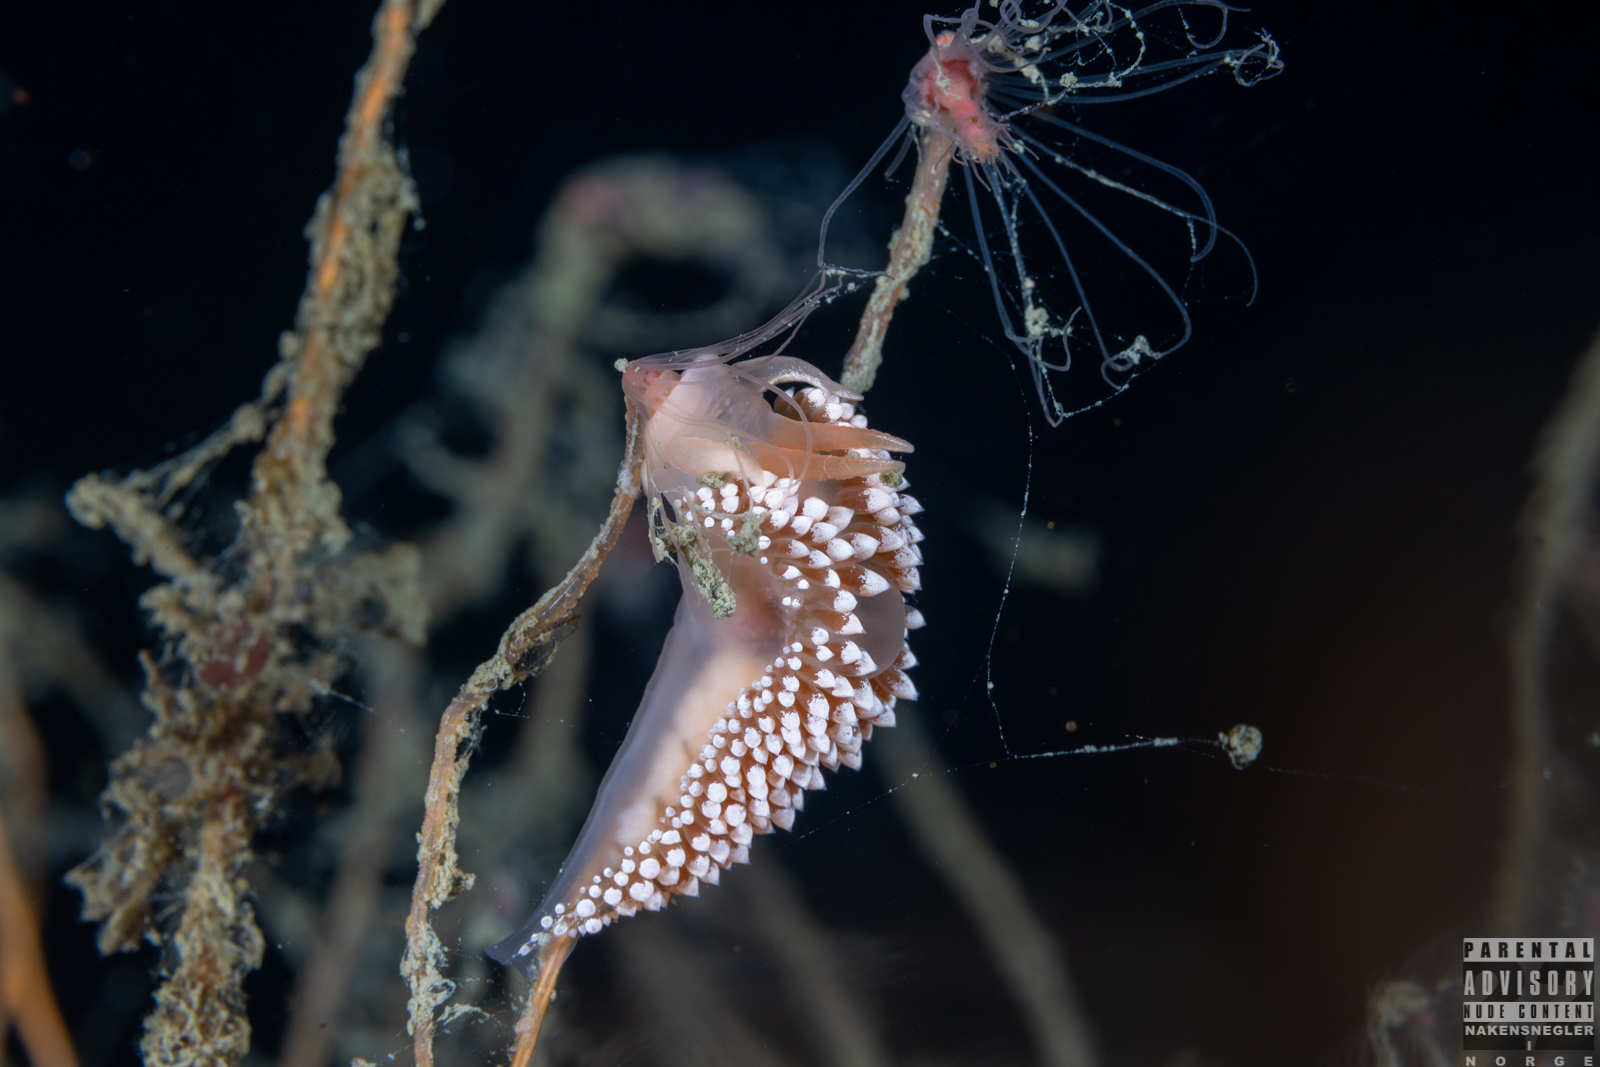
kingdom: Animalia
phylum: Mollusca
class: Gastropoda
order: Nudibranchia
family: Coryphellidae
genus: Coryphella
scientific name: Coryphella verrucosa
